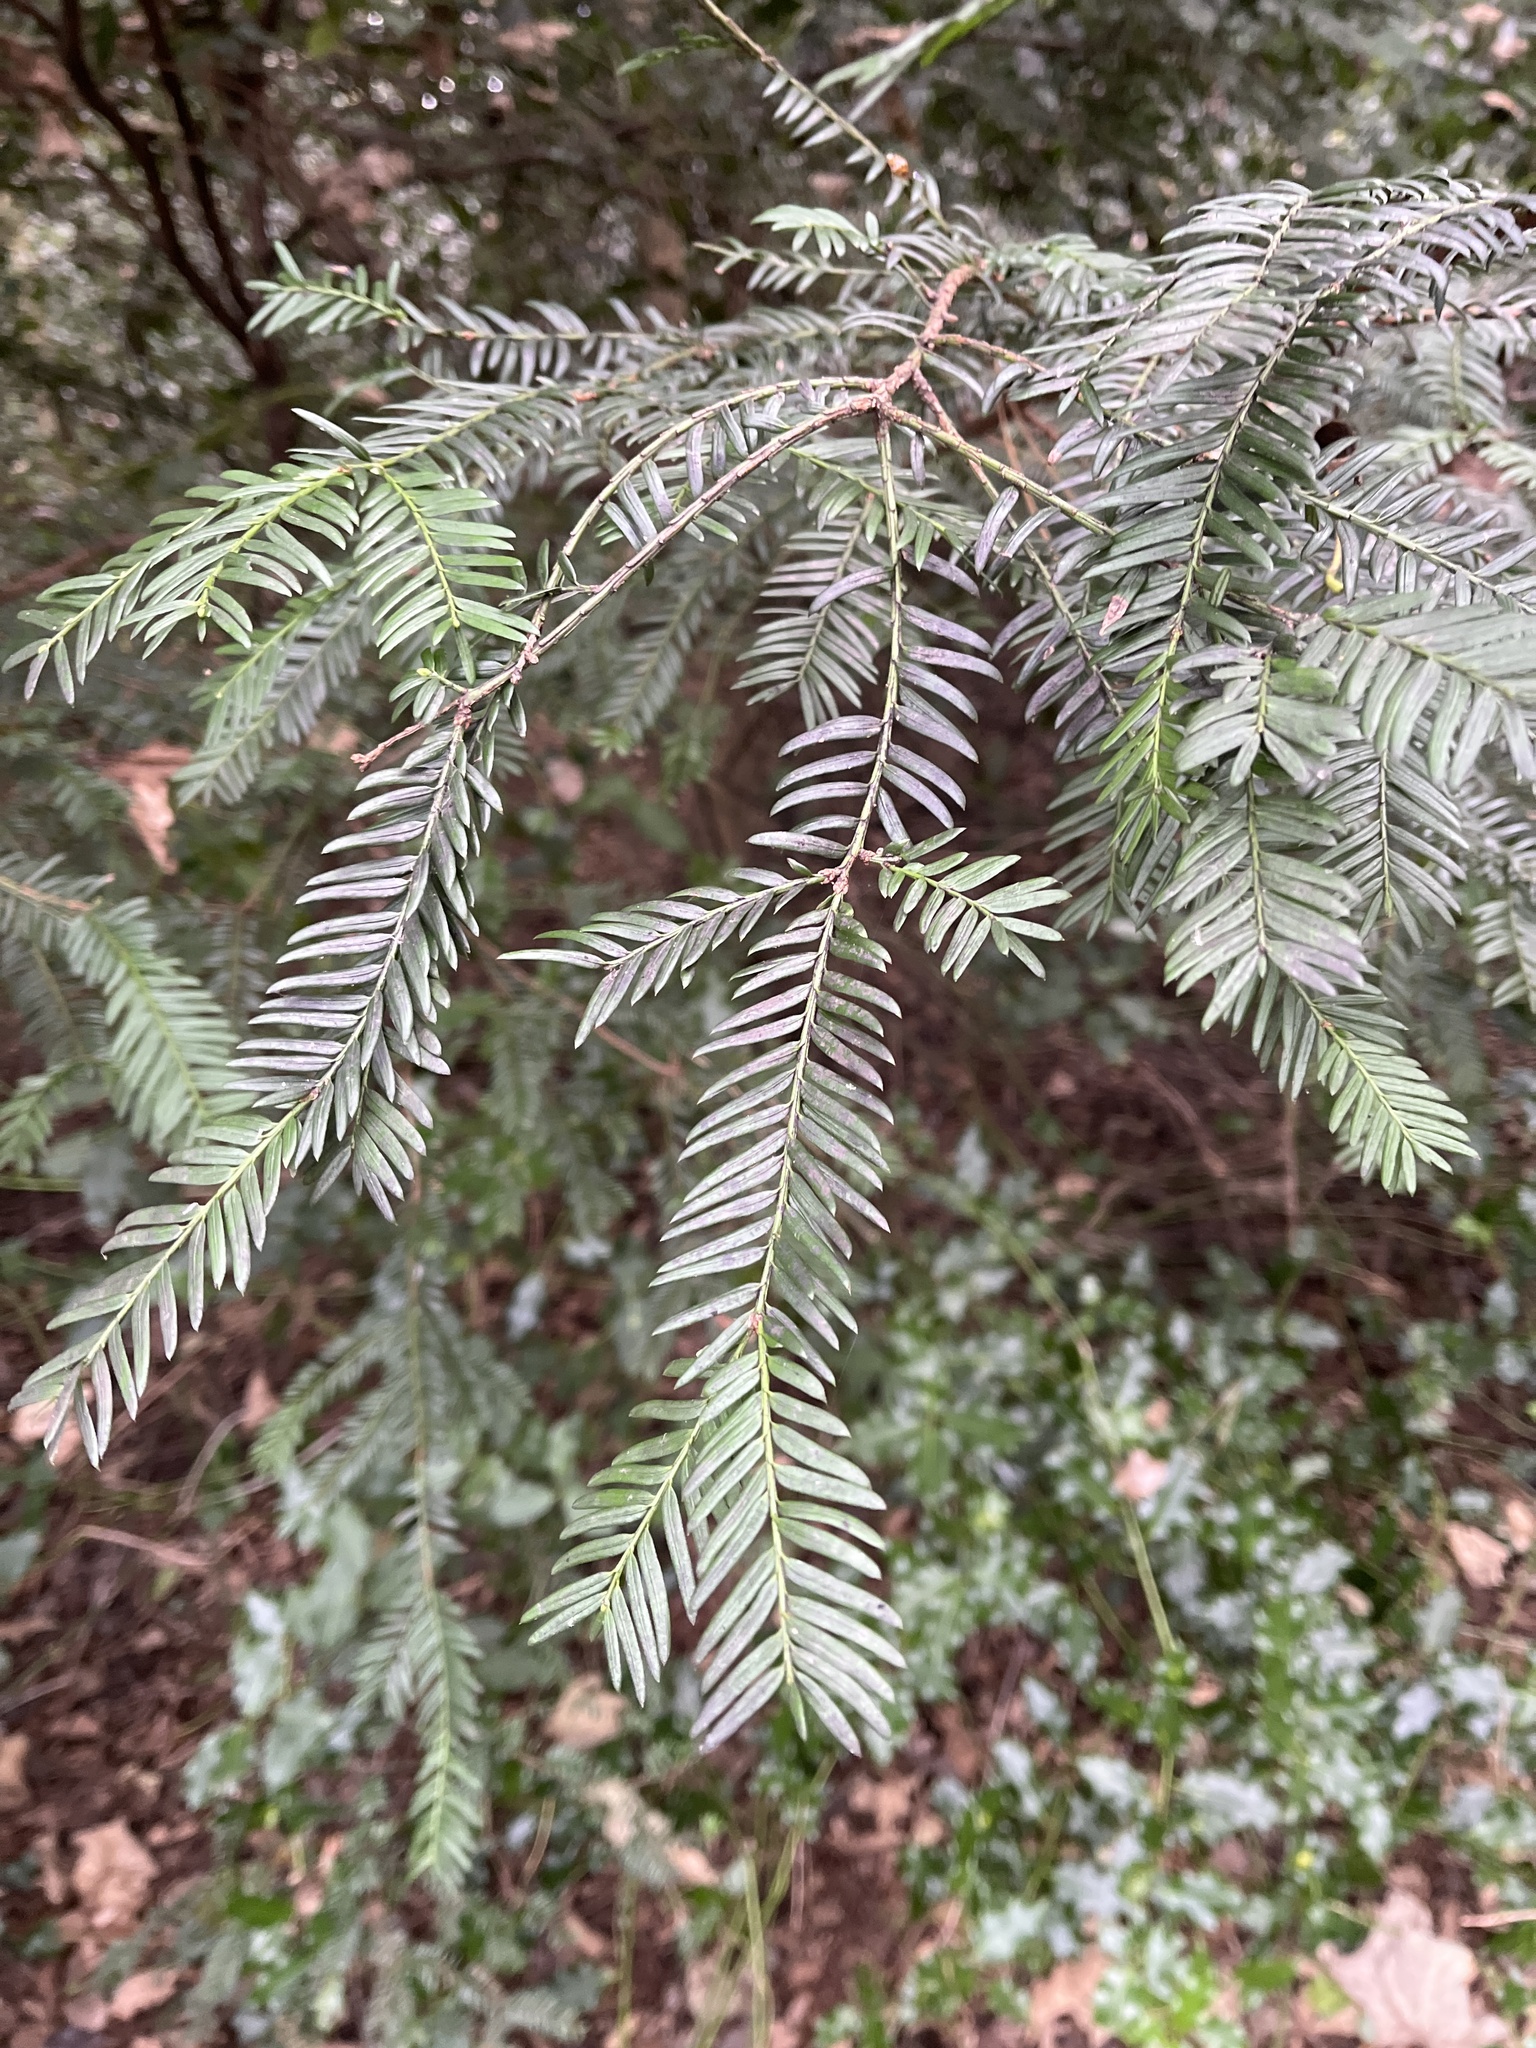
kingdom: Plantae
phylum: Tracheophyta
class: Pinopsida
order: Pinales
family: Taxaceae
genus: Taxus
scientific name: Taxus baccata
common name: Yew
